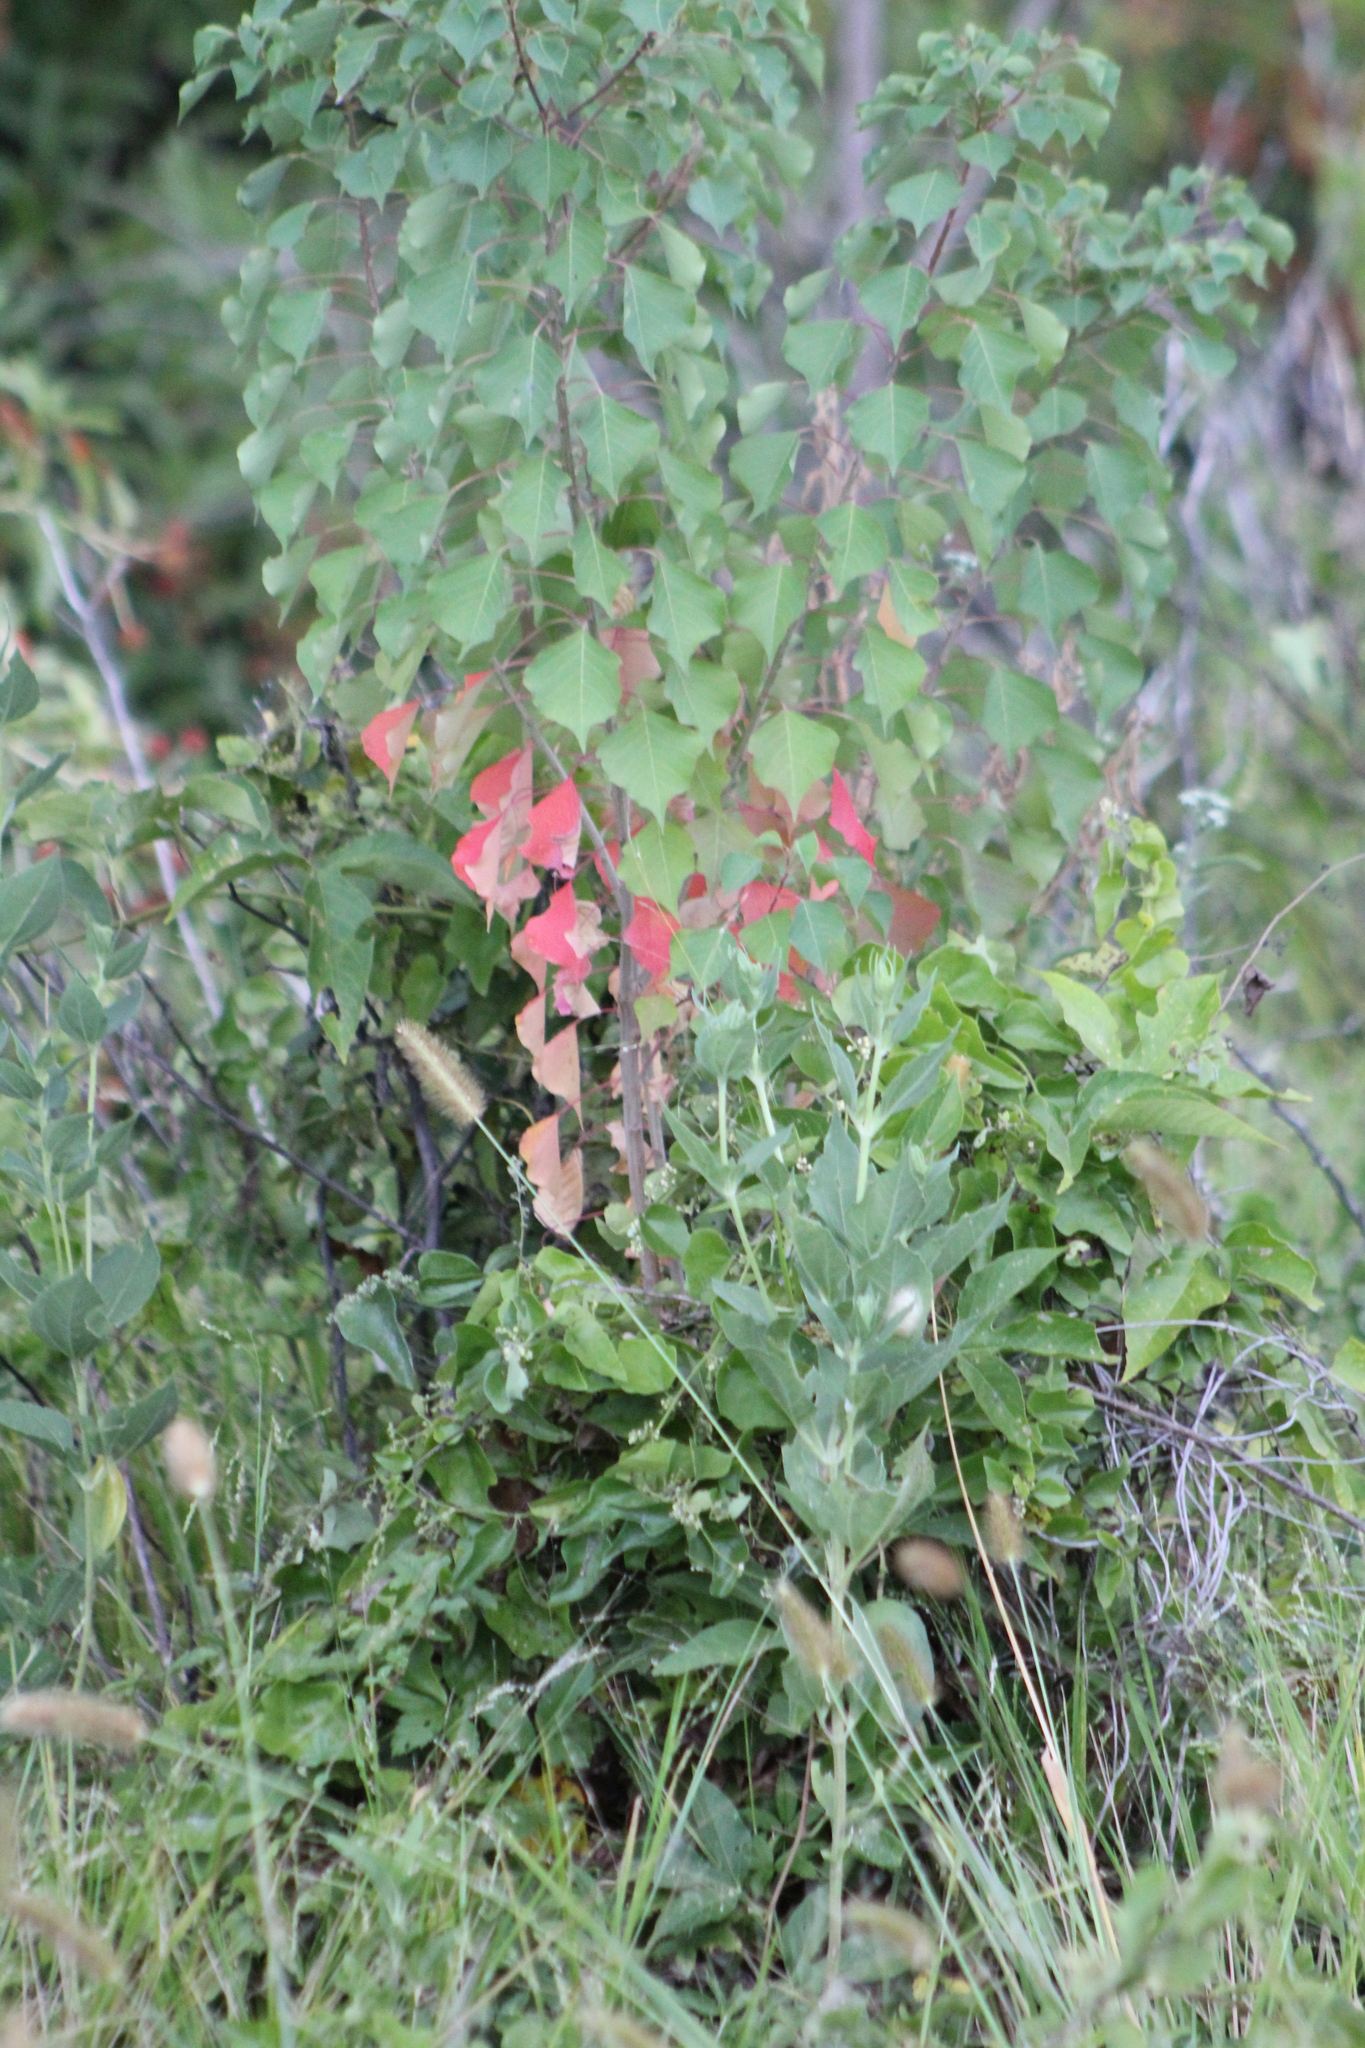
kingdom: Plantae
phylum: Tracheophyta
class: Magnoliopsida
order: Malpighiales
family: Euphorbiaceae
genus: Triadica
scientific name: Triadica sebifera
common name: Chinese tallow
